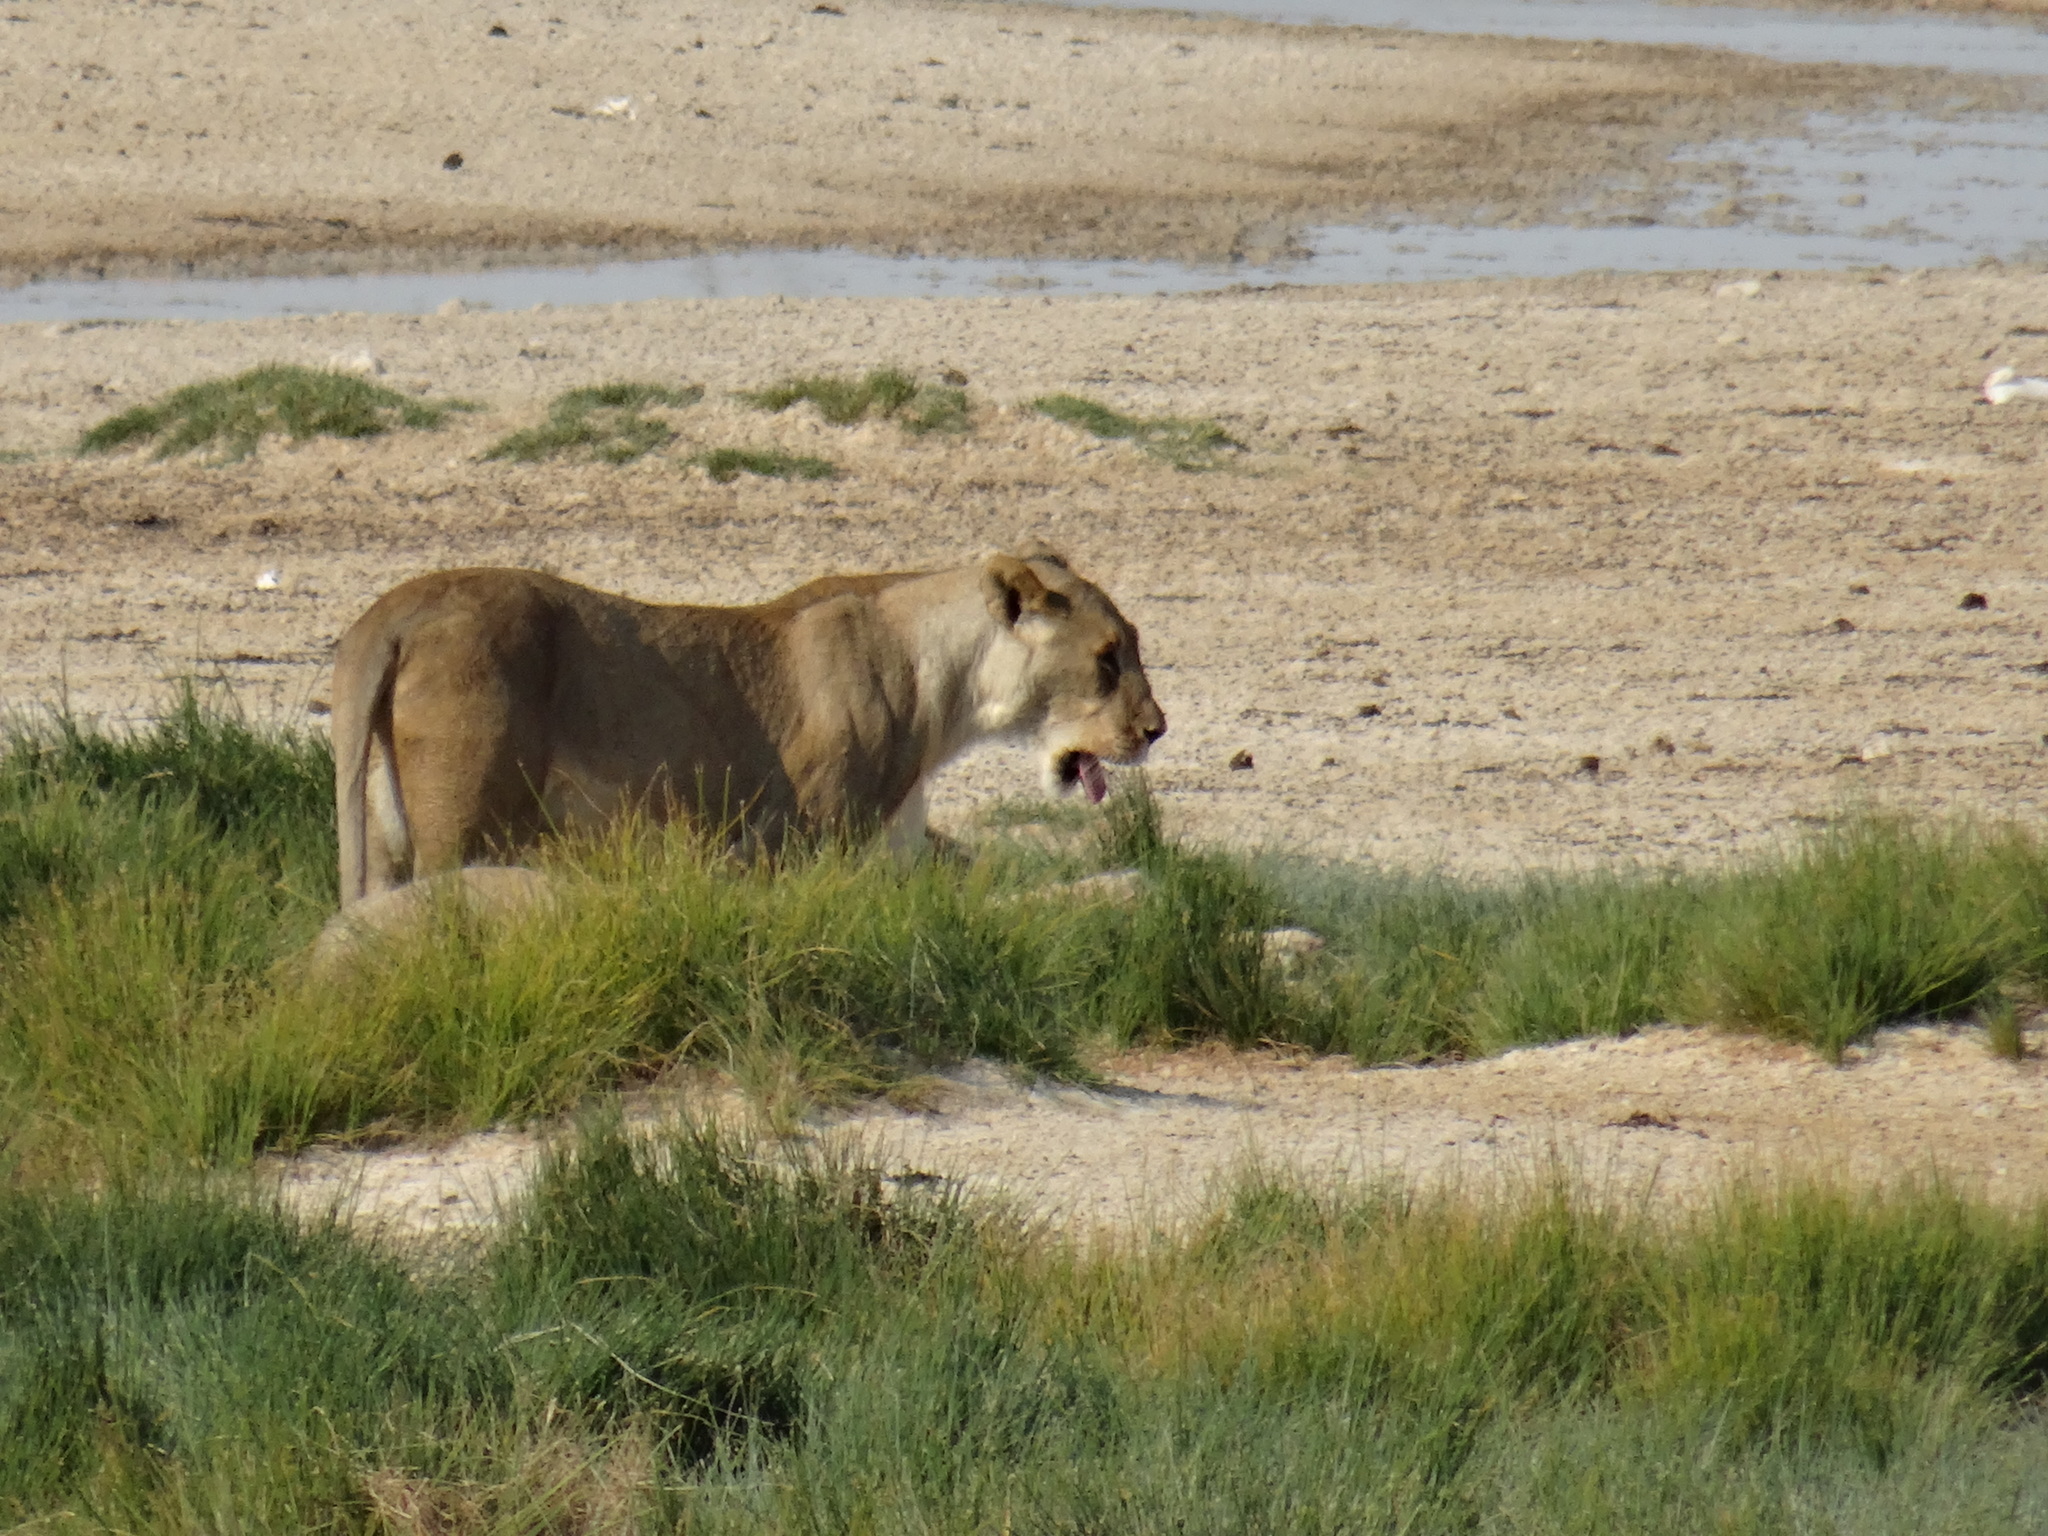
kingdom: Animalia
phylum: Chordata
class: Mammalia
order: Carnivora
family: Felidae
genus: Panthera
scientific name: Panthera leo
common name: Lion
